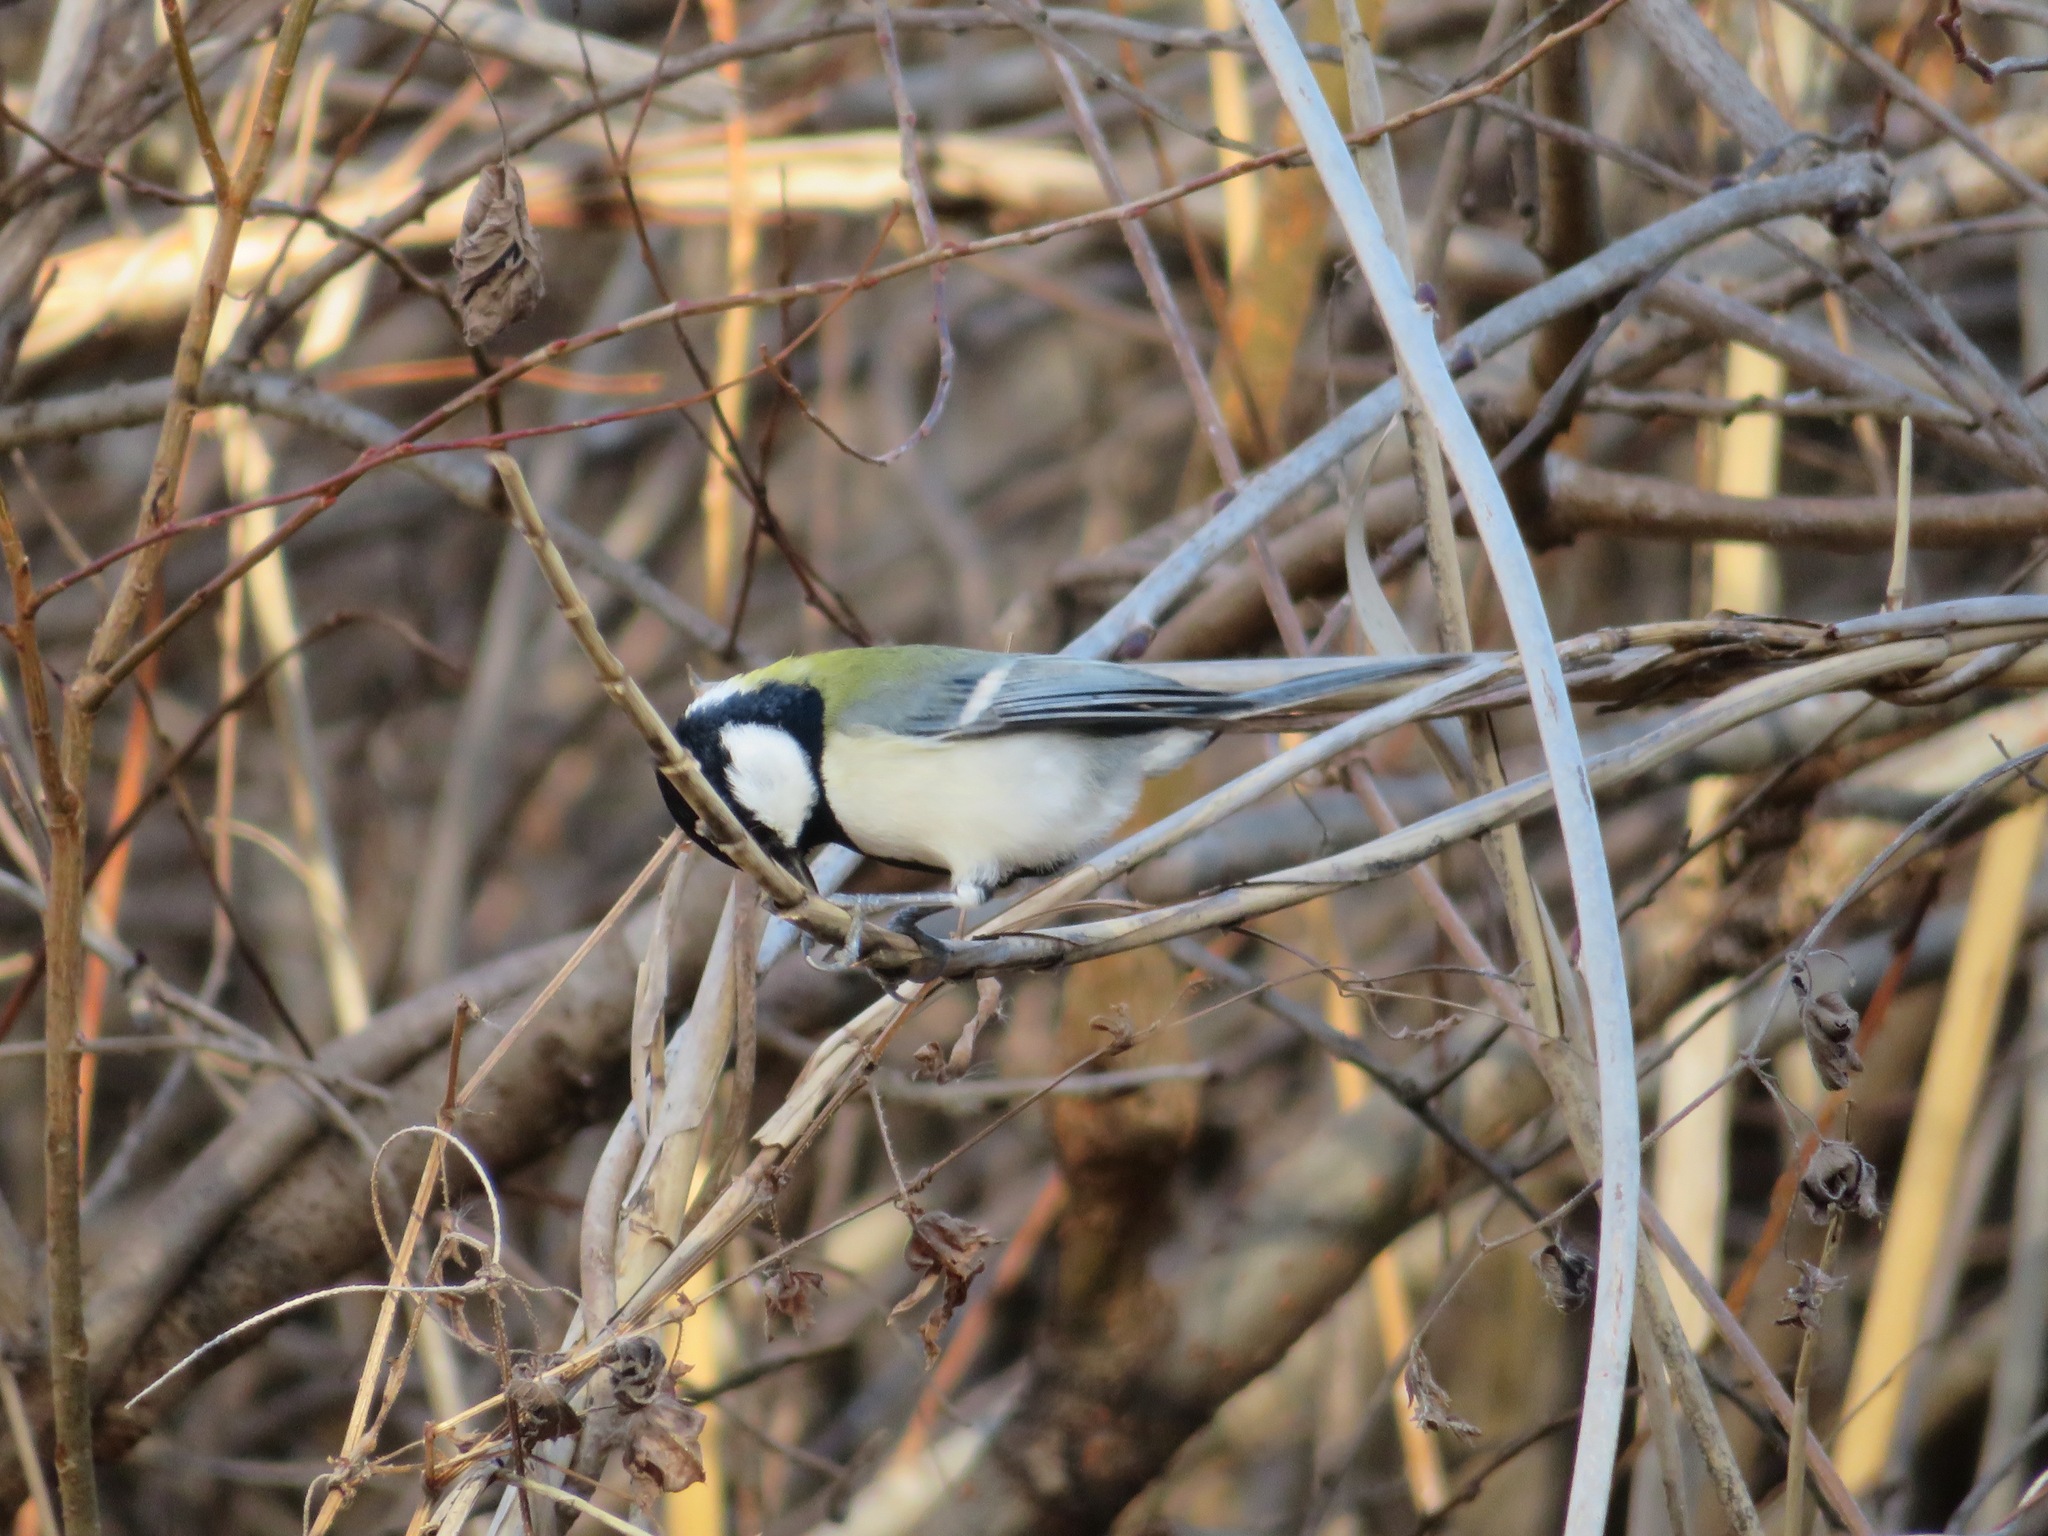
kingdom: Animalia
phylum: Chordata
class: Aves
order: Passeriformes
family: Paridae
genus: Parus
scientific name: Parus minor
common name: Japanese tit
